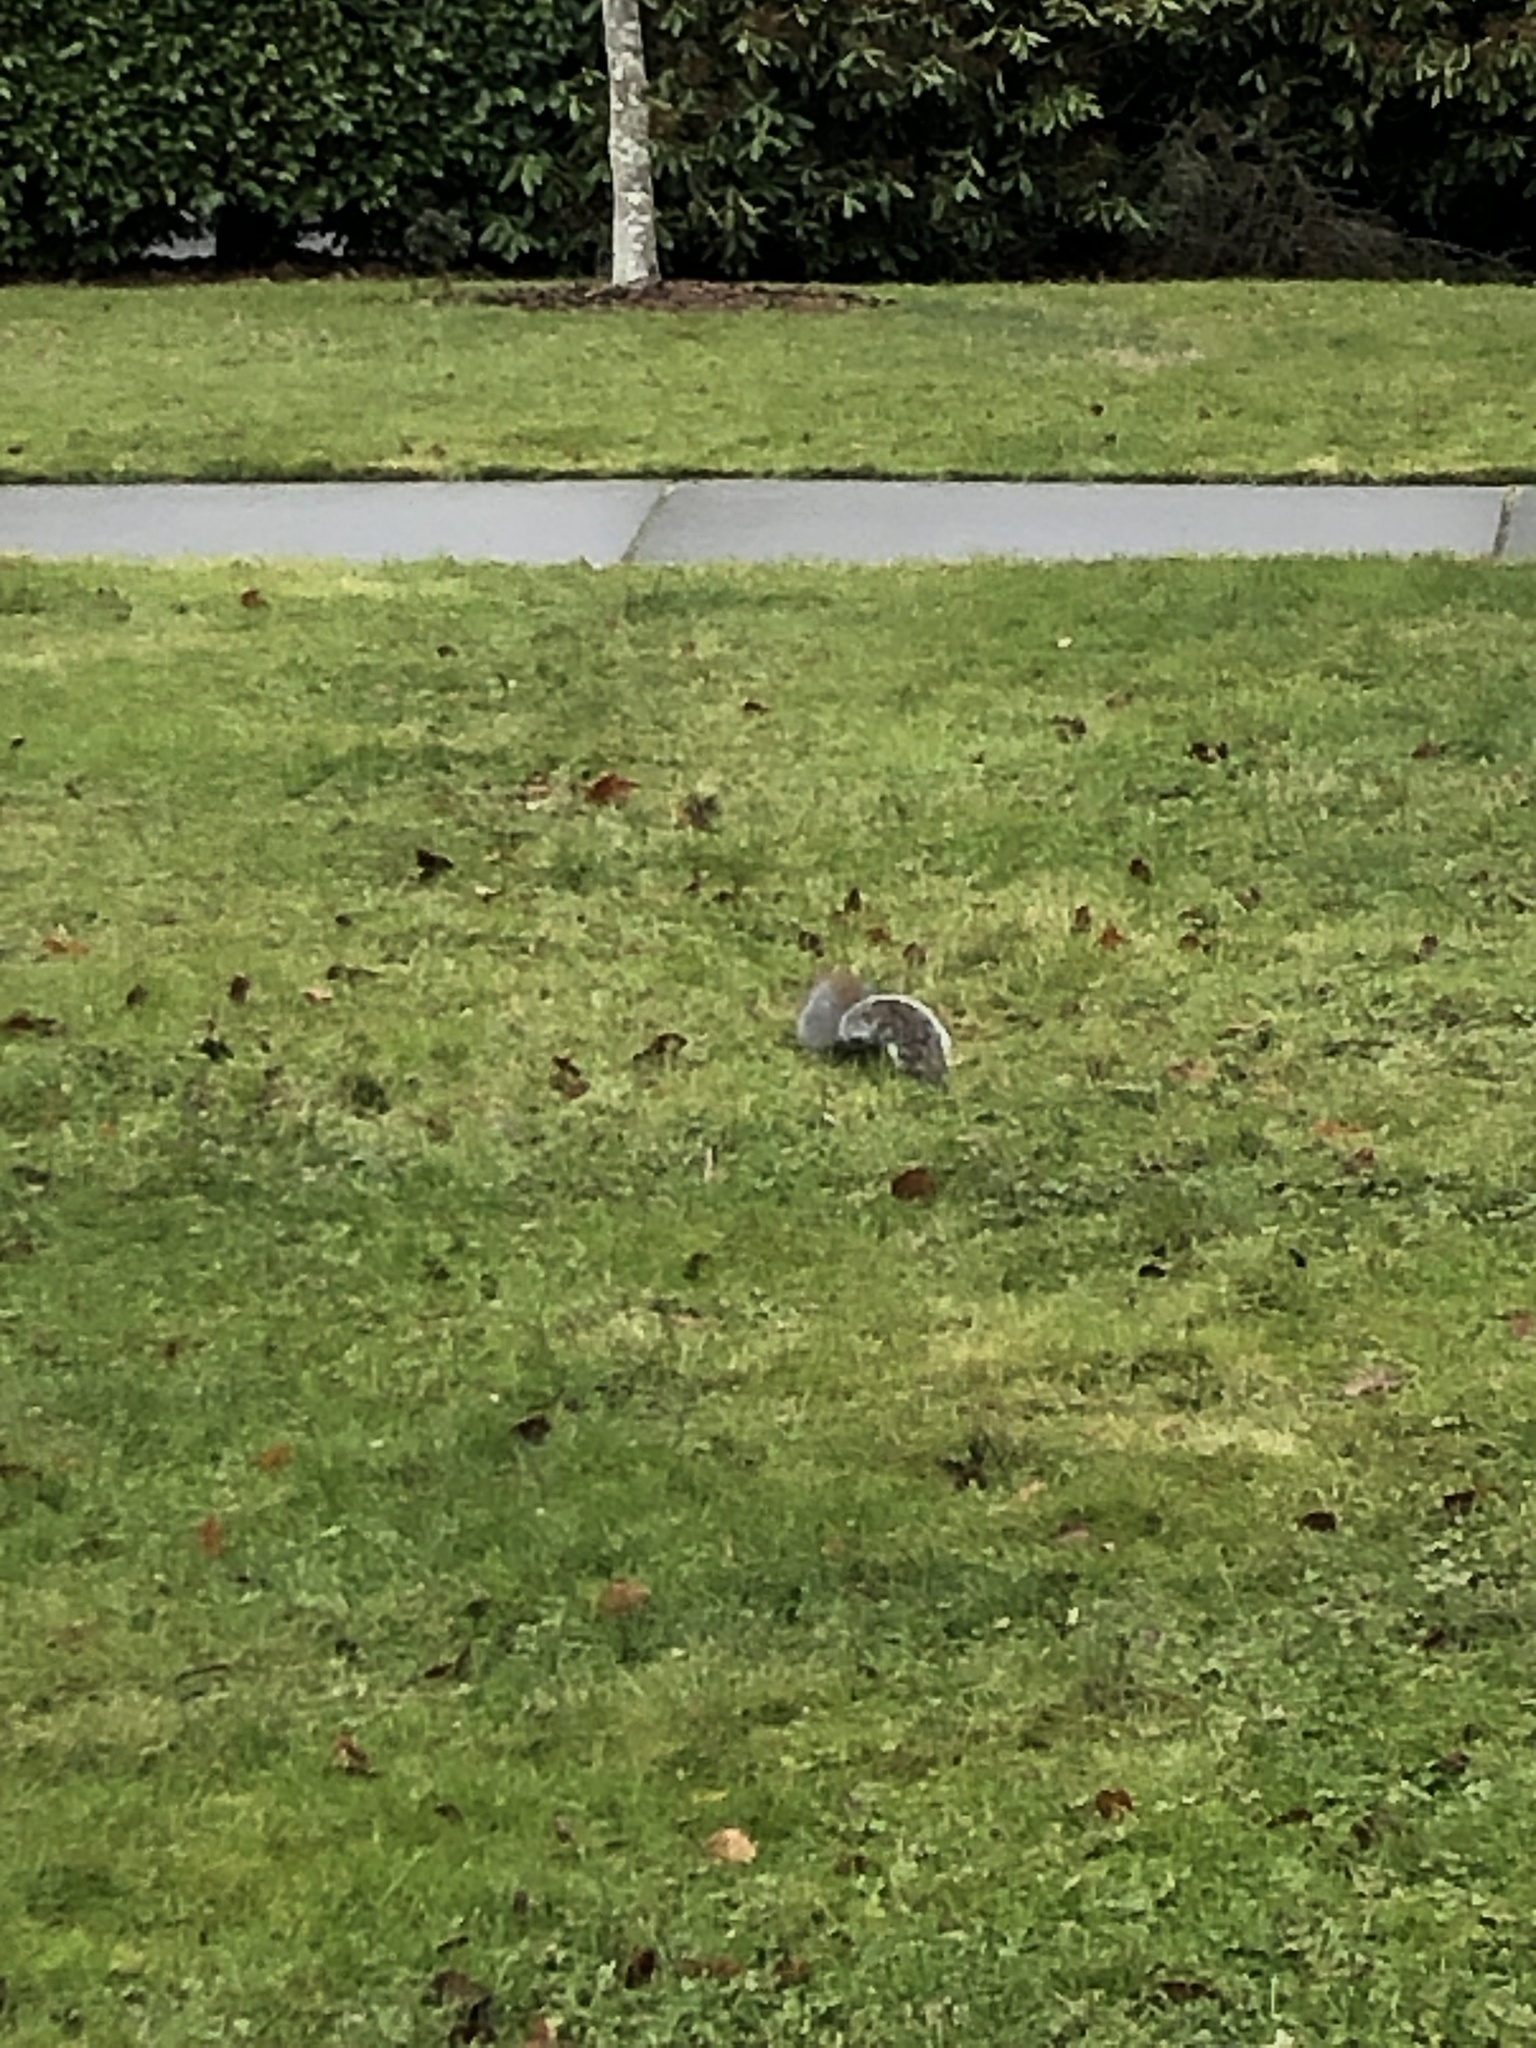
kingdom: Animalia
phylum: Chordata
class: Mammalia
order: Rodentia
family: Sciuridae
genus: Sciurus
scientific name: Sciurus carolinensis
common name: Eastern gray squirrel
